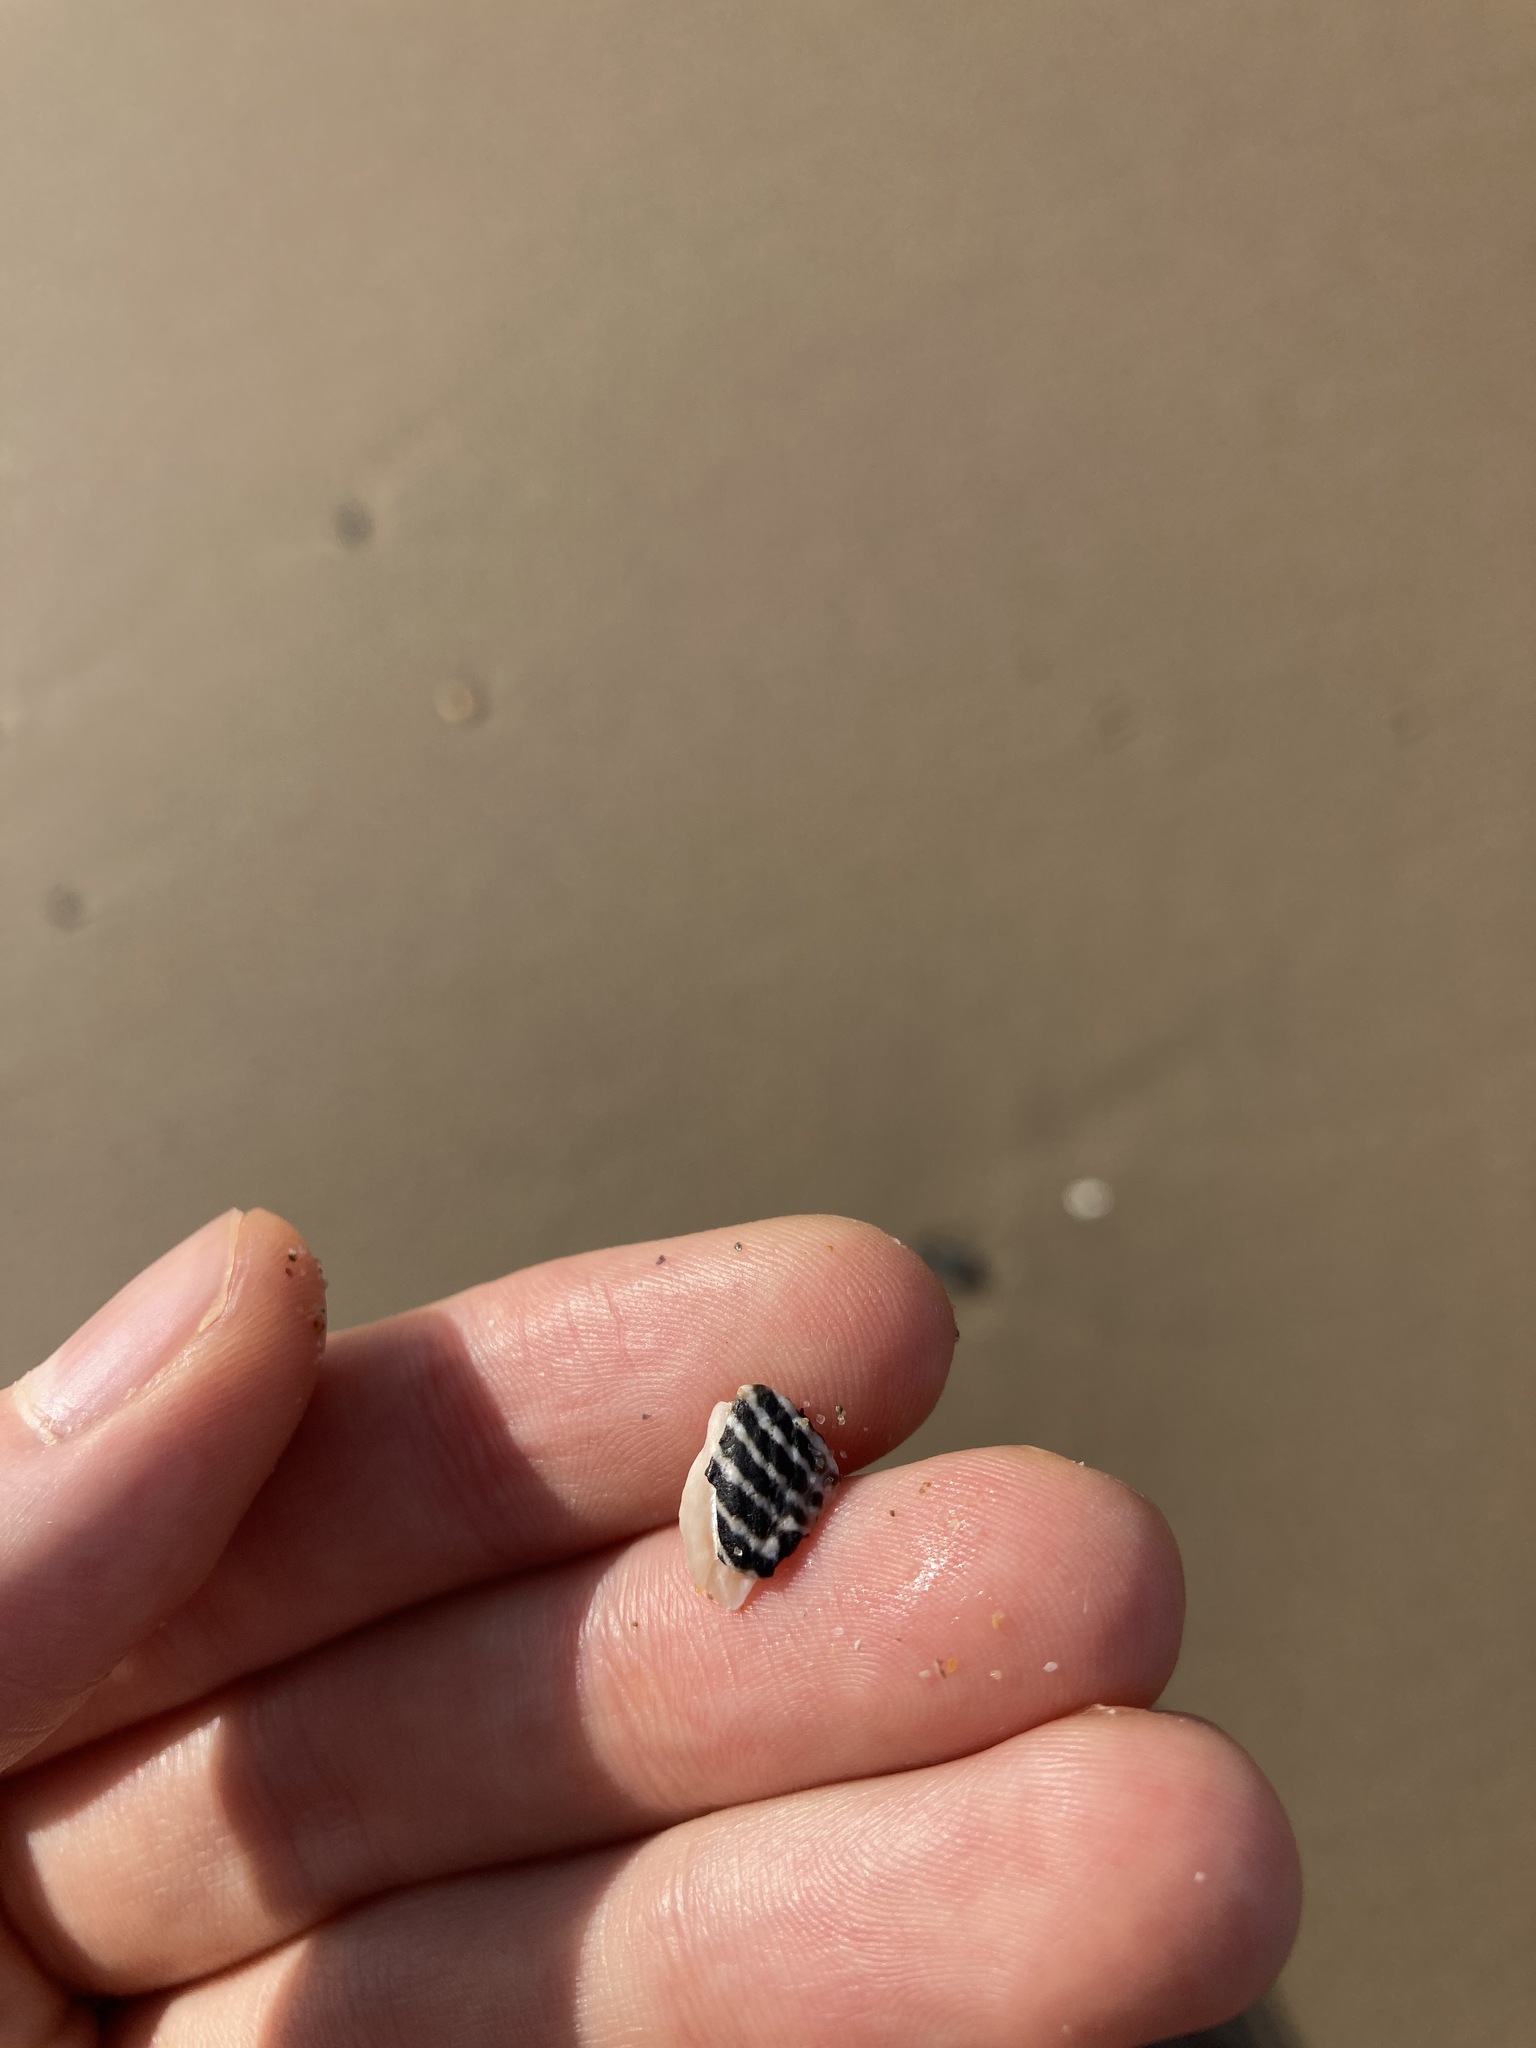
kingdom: Animalia
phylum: Mollusca
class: Gastropoda
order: Trochida
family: Trochidae
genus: Austrocochlea
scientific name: Austrocochlea porcata
